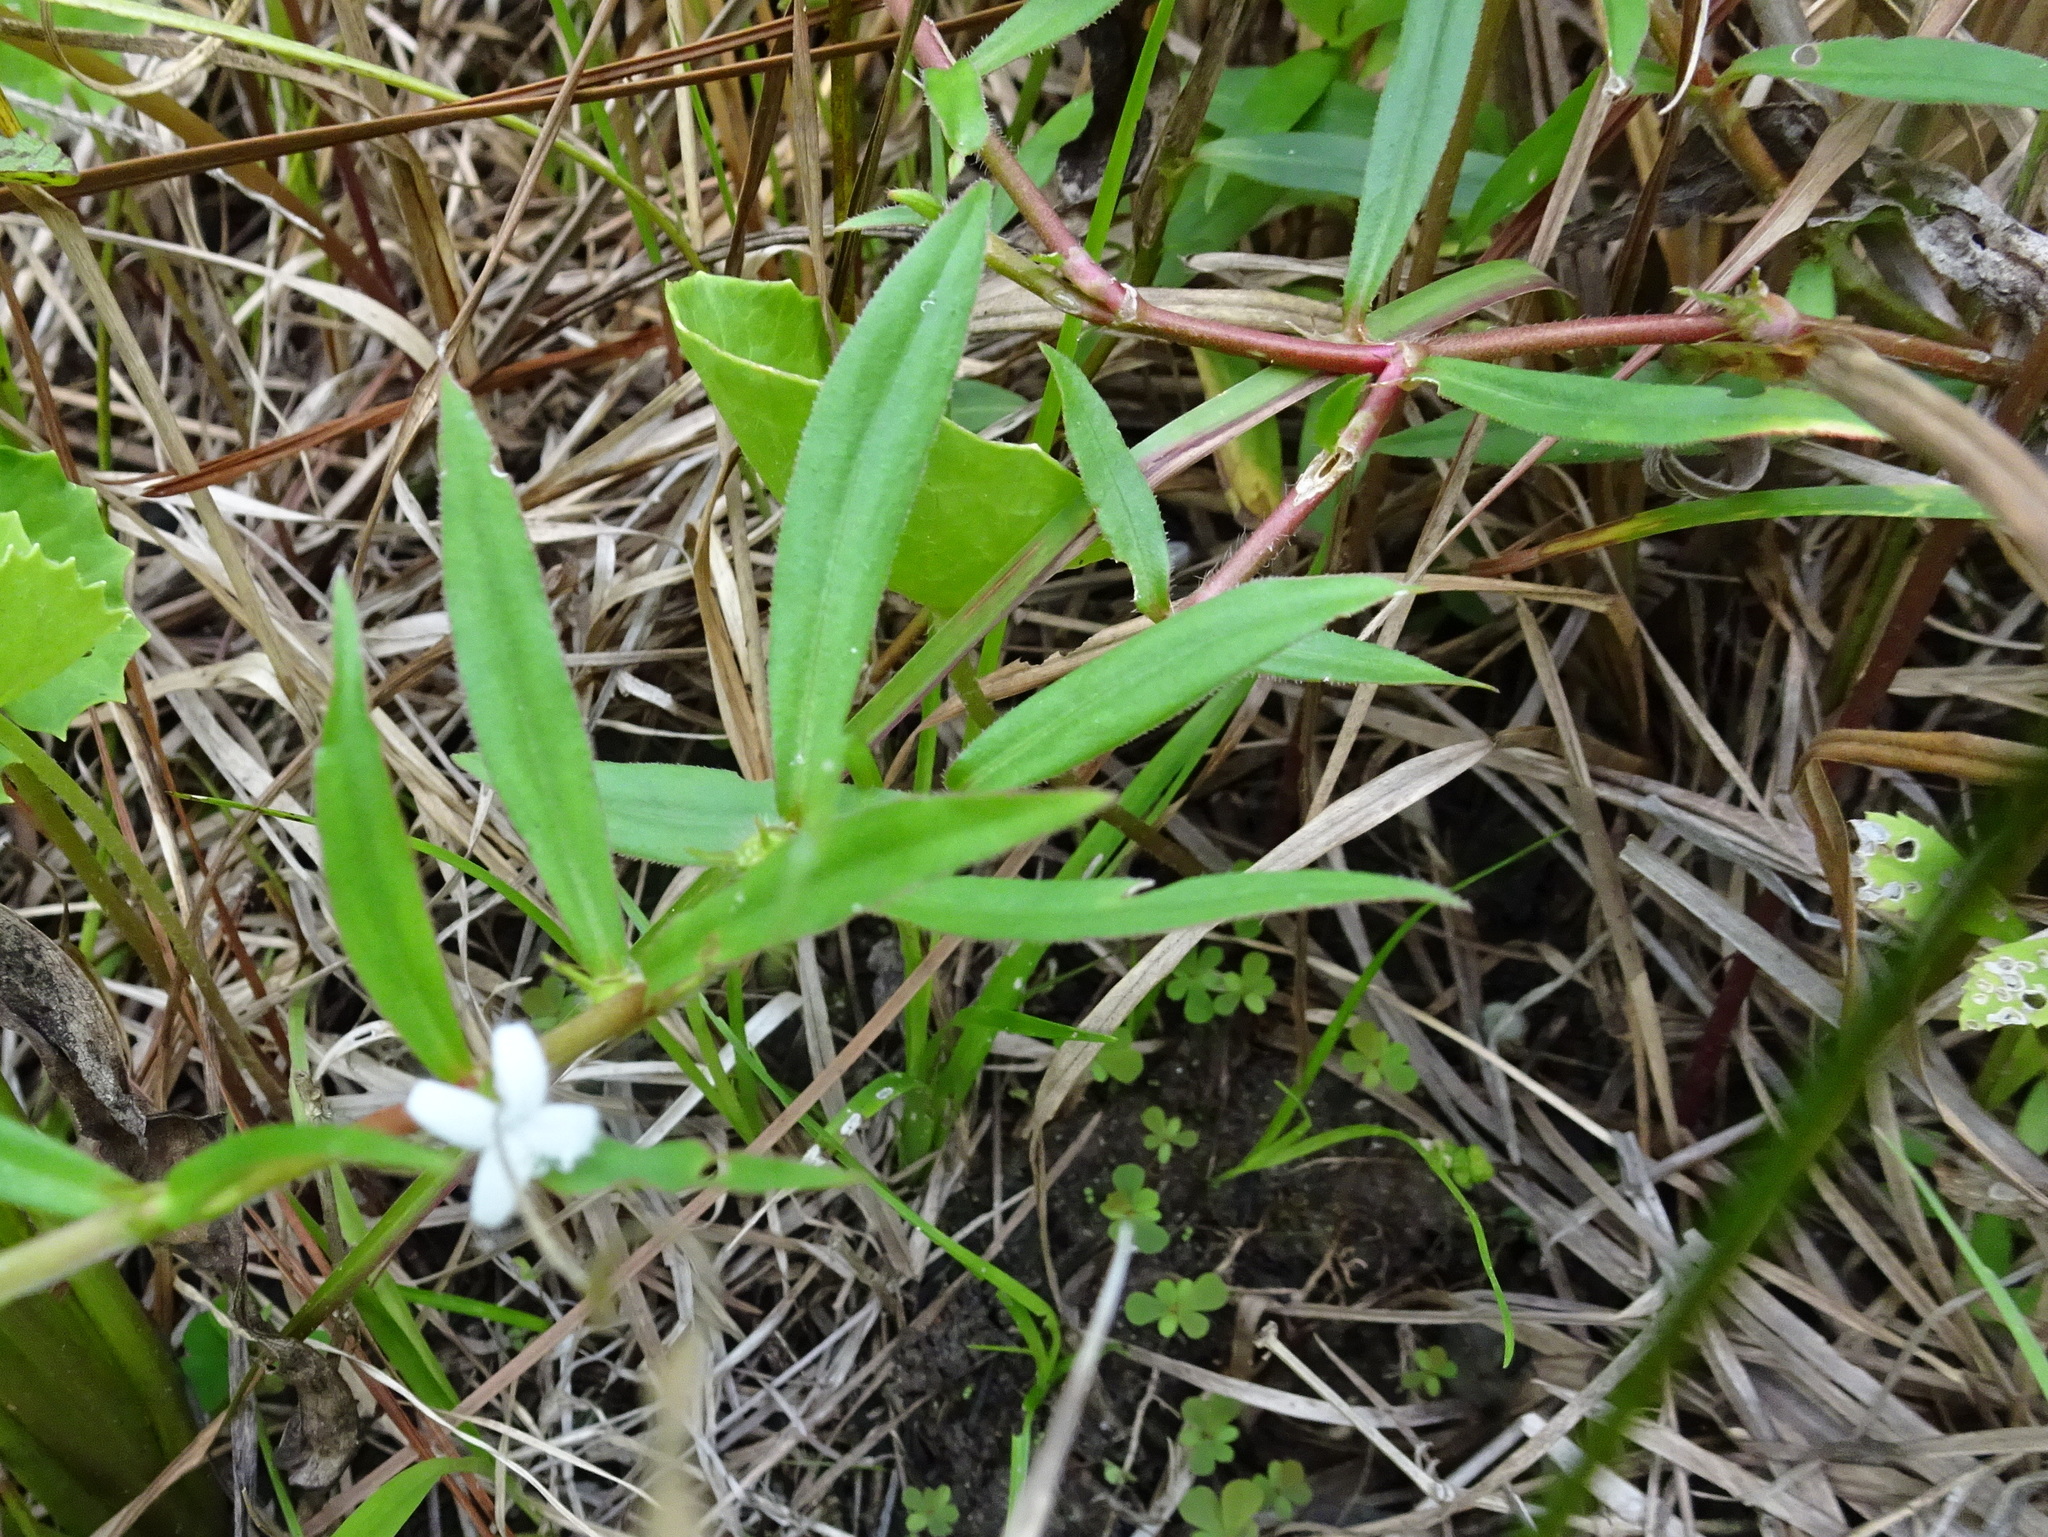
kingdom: Plantae
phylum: Tracheophyta
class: Magnoliopsida
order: Gentianales
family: Rubiaceae
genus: Diodia
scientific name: Diodia virginiana
